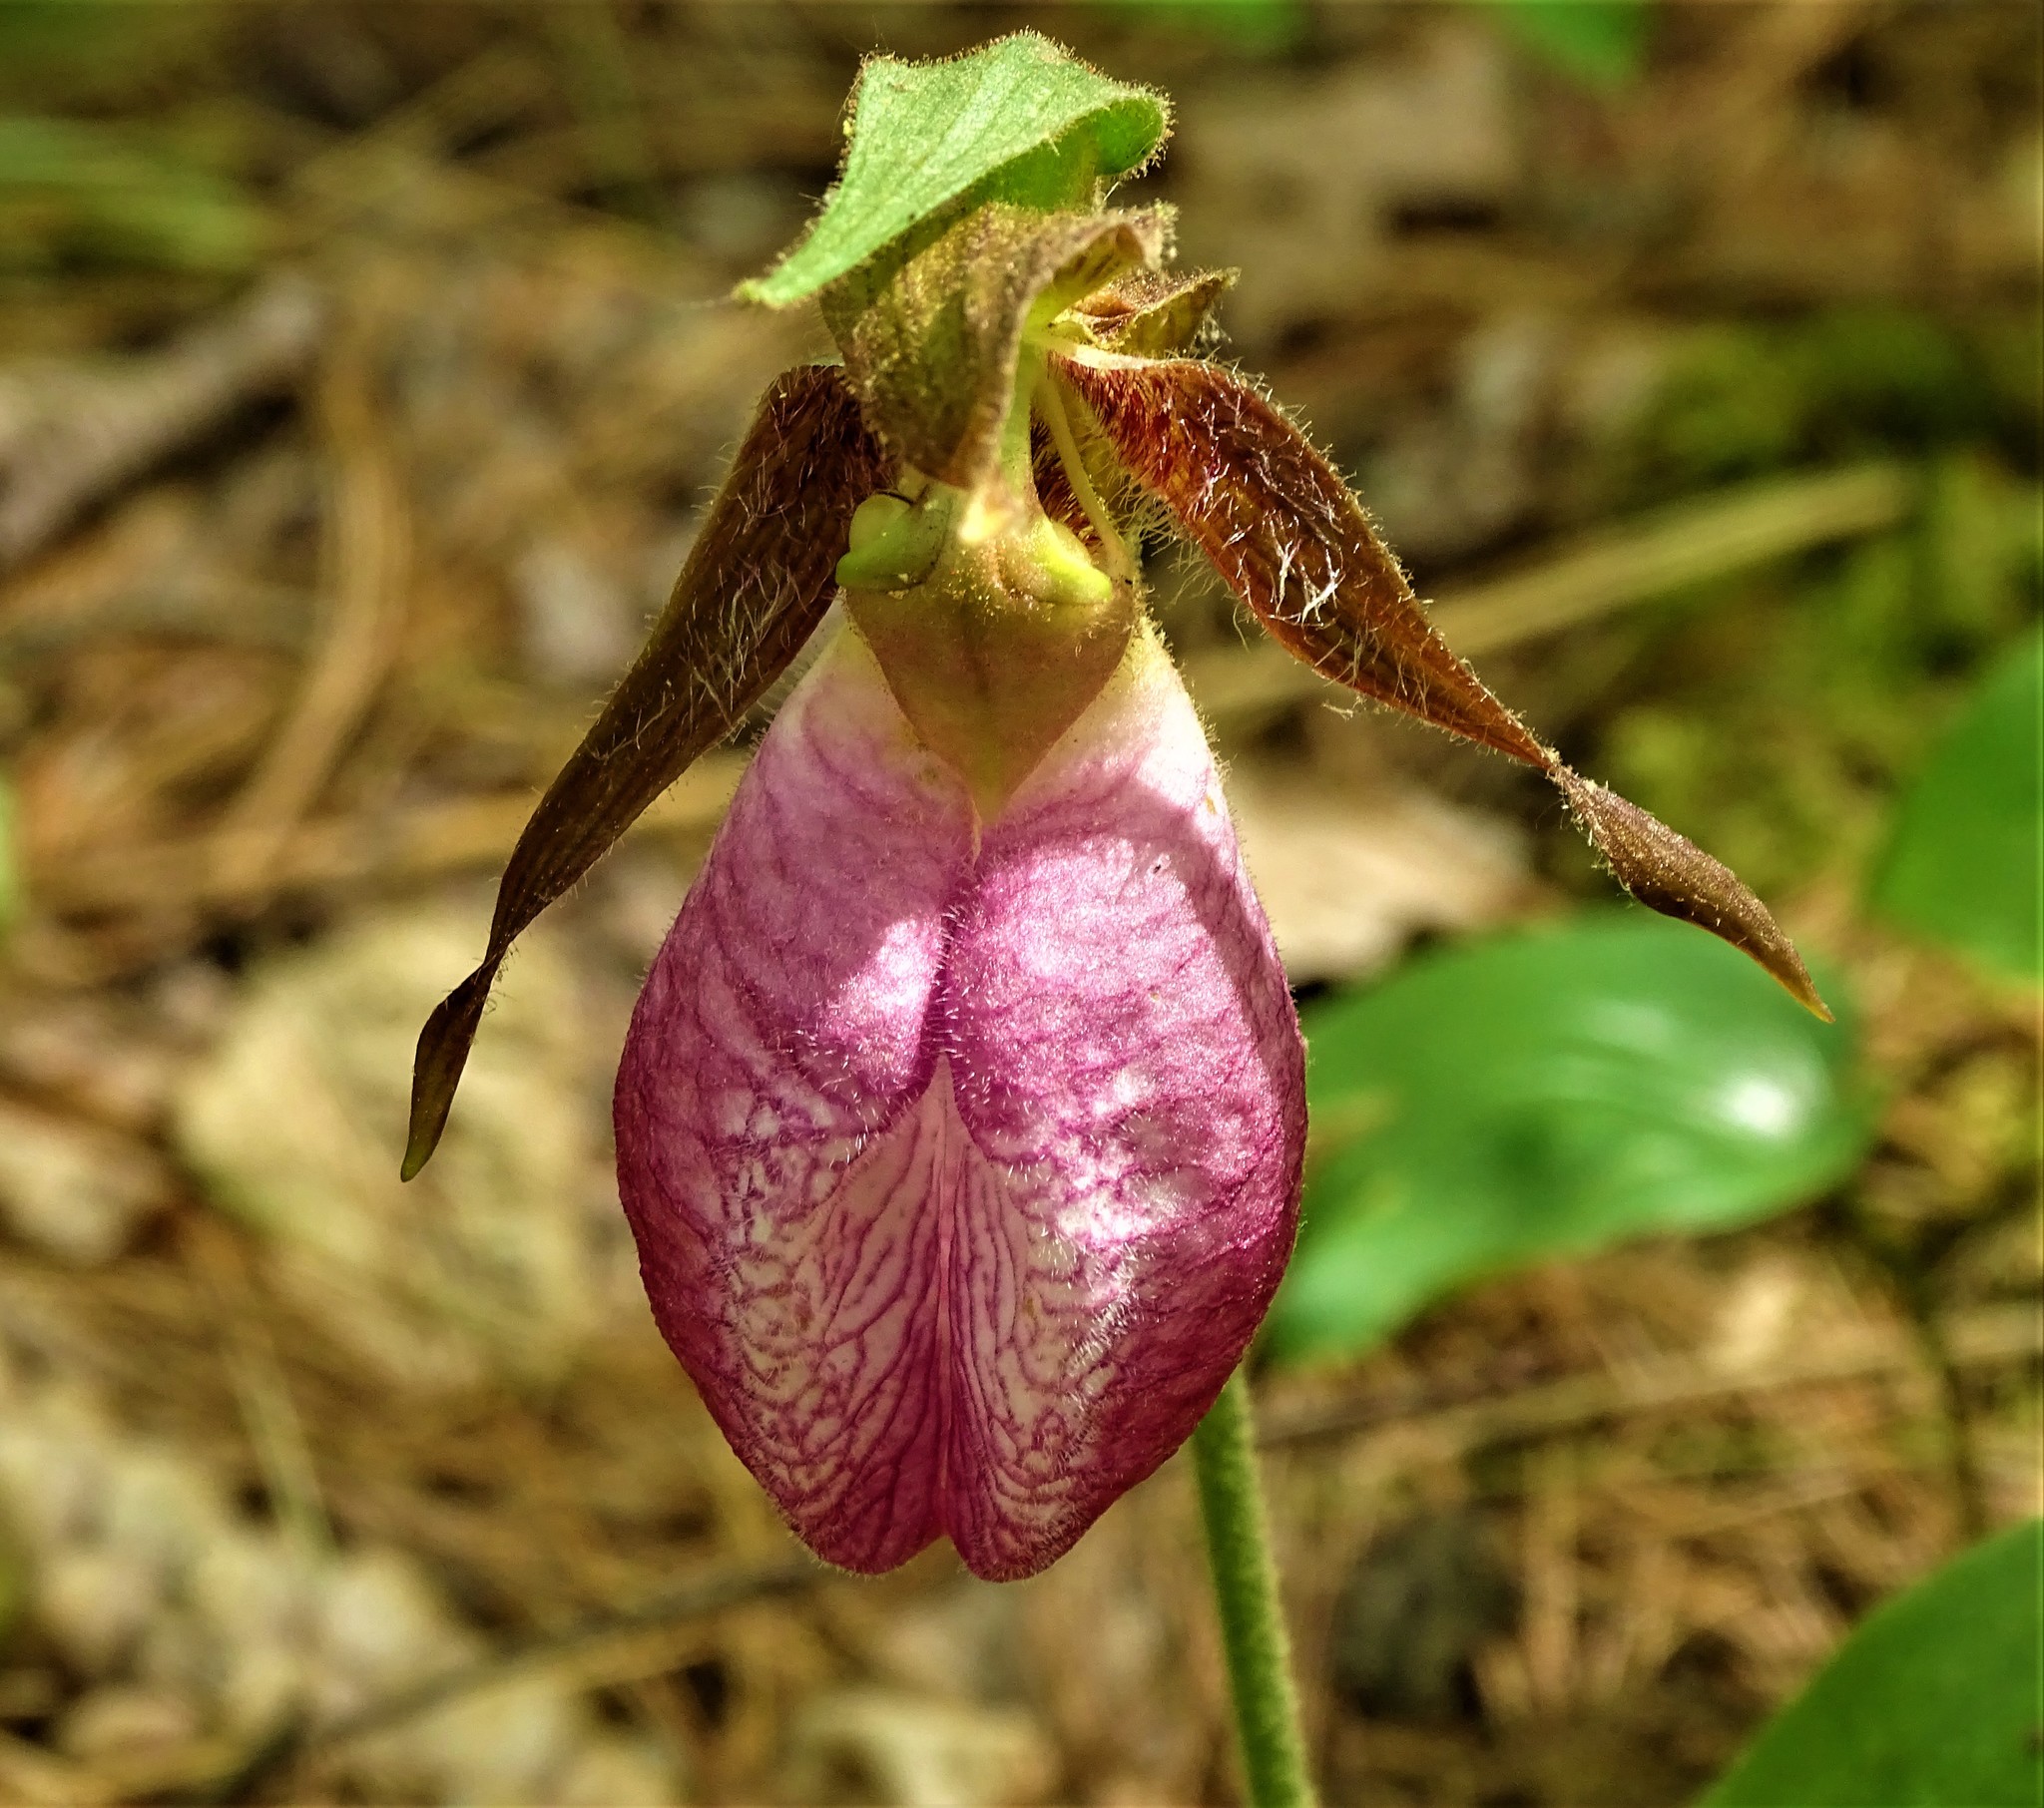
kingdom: Plantae
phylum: Tracheophyta
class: Liliopsida
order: Asparagales
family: Orchidaceae
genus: Cypripedium
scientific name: Cypripedium acaule
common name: Pink lady's-slipper
